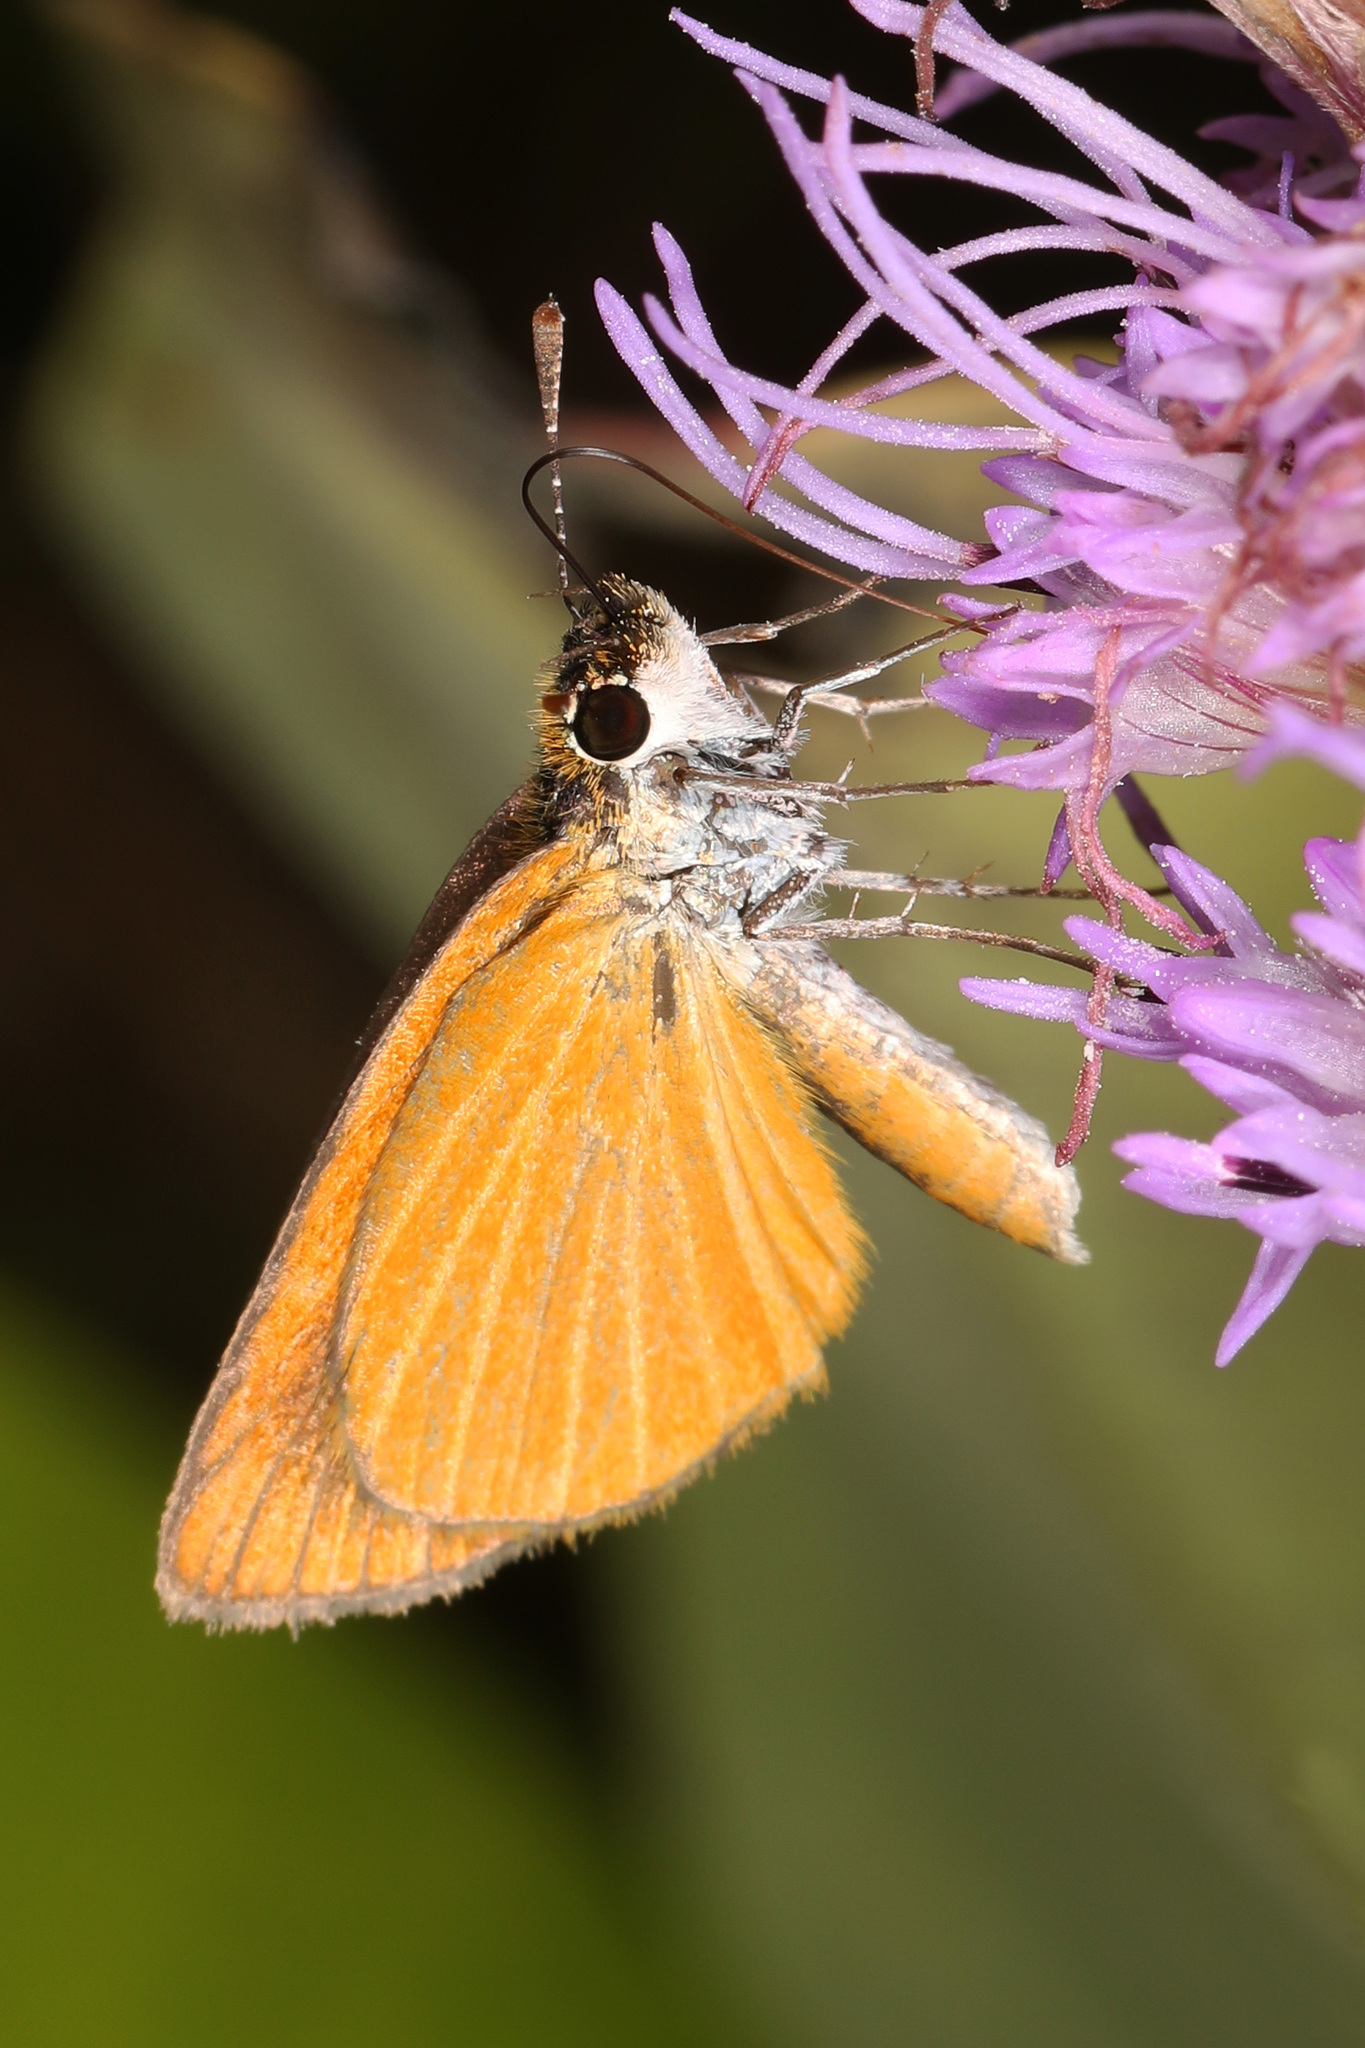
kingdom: Animalia
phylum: Arthropoda
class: Insecta
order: Lepidoptera
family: Hesperiidae
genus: Ancyloxypha
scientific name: Ancyloxypha numitor
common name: Least skipper
